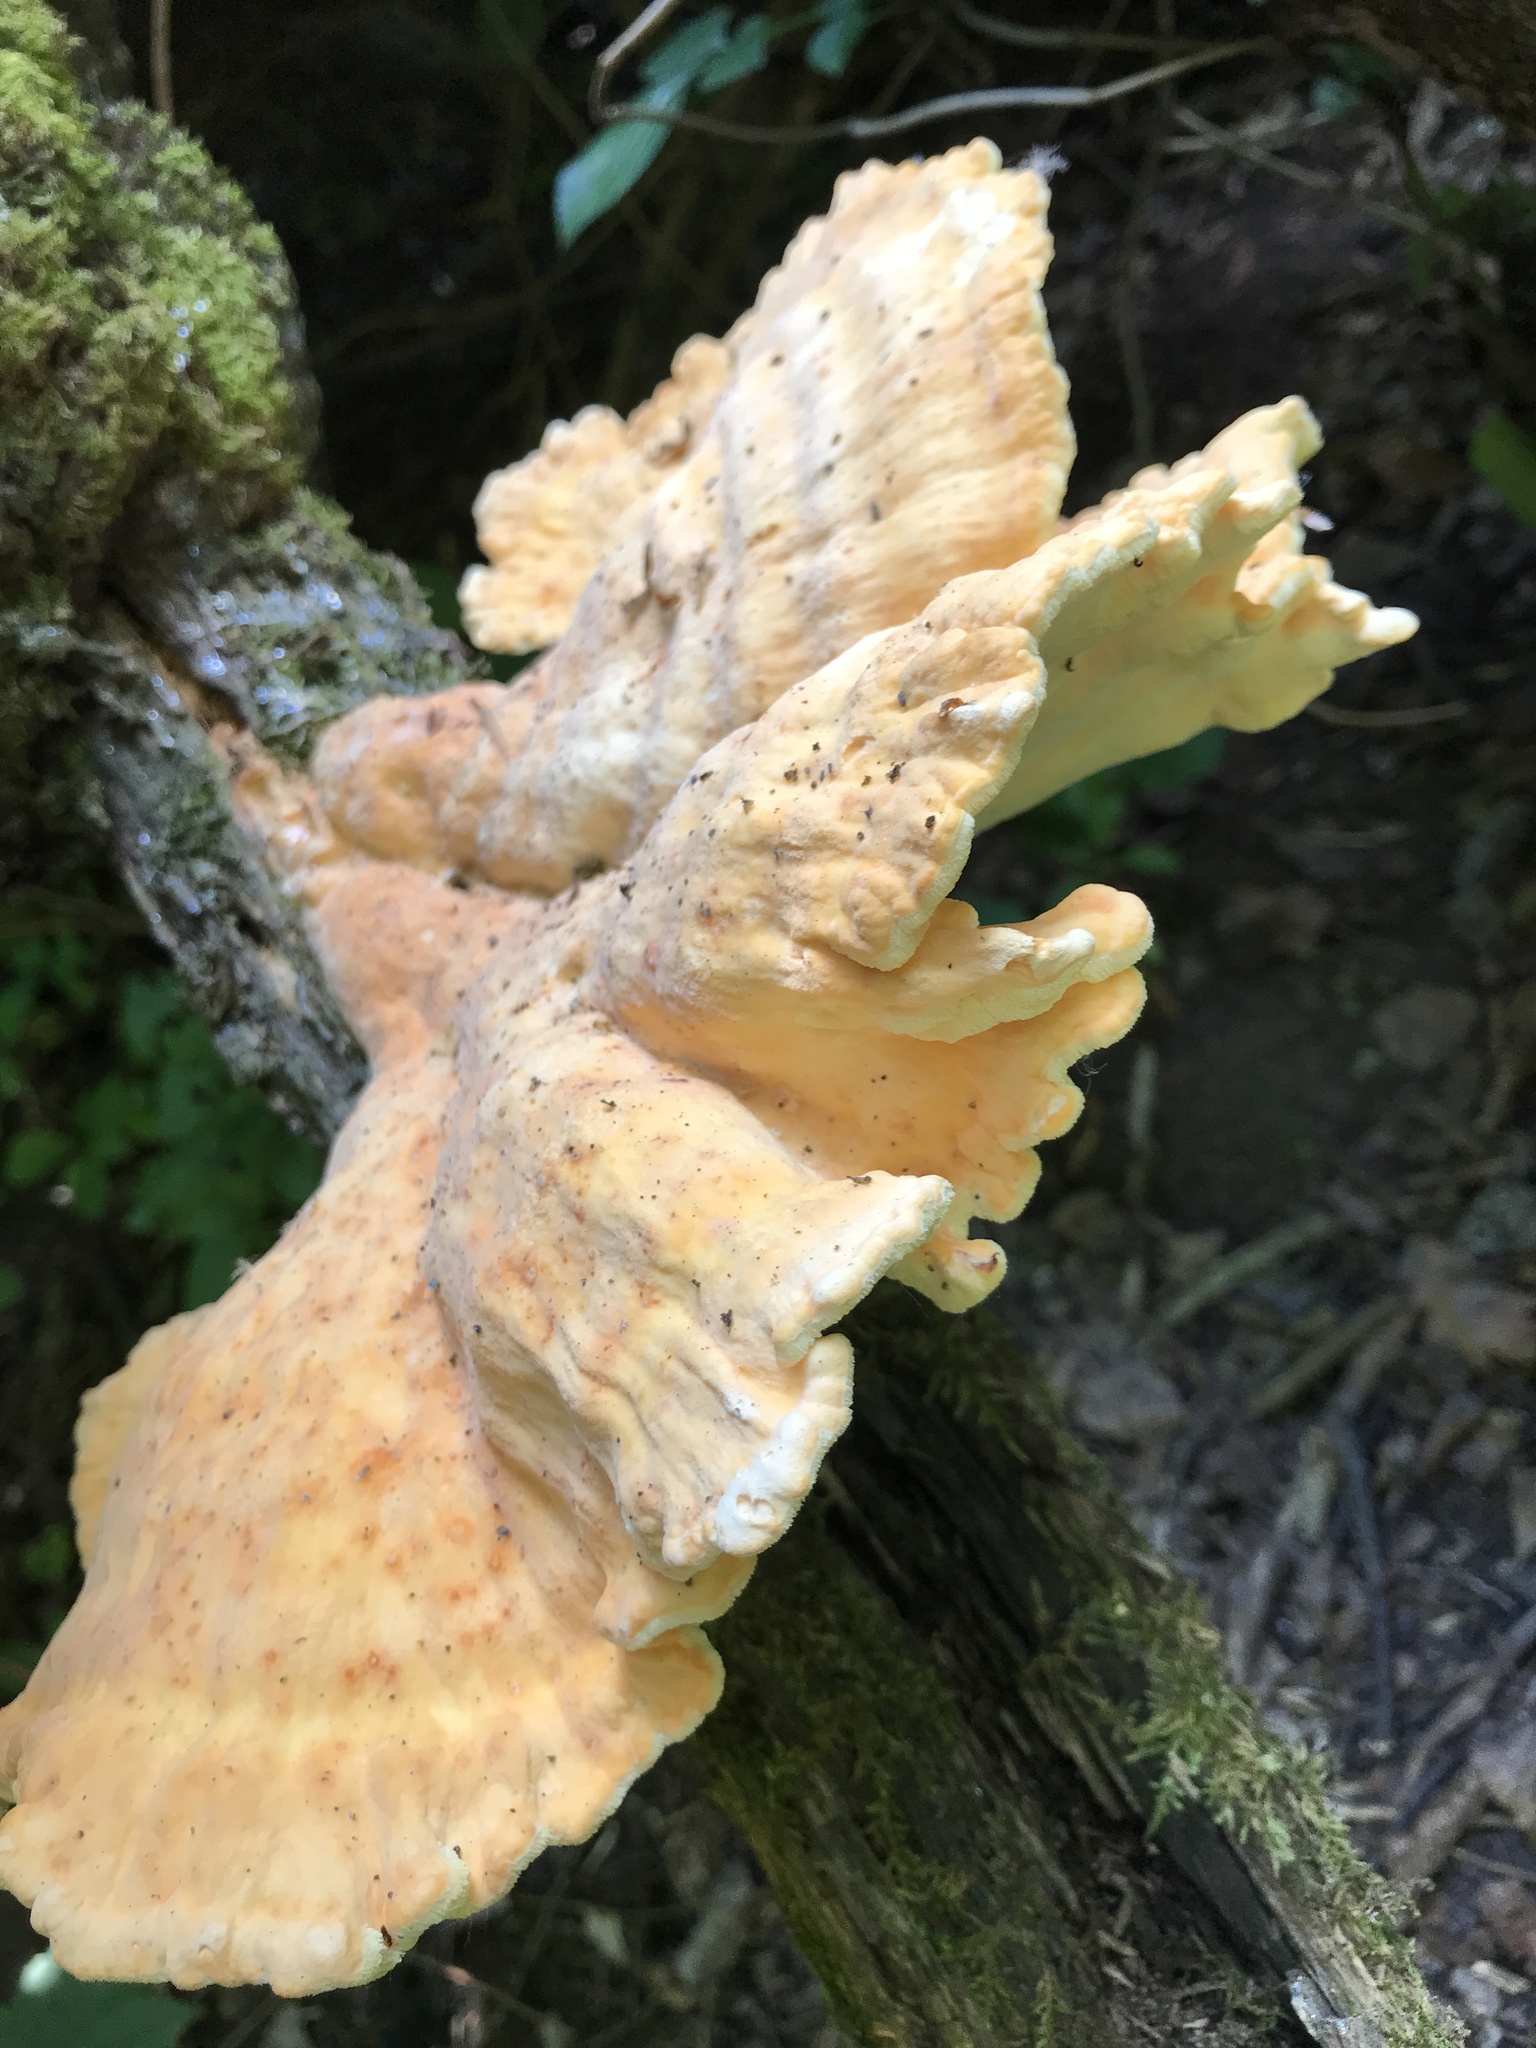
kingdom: Fungi
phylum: Basidiomycota
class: Agaricomycetes
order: Polyporales
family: Laetiporaceae
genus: Laetiporus
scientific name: Laetiporus sulphureus
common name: Chicken of the woods
